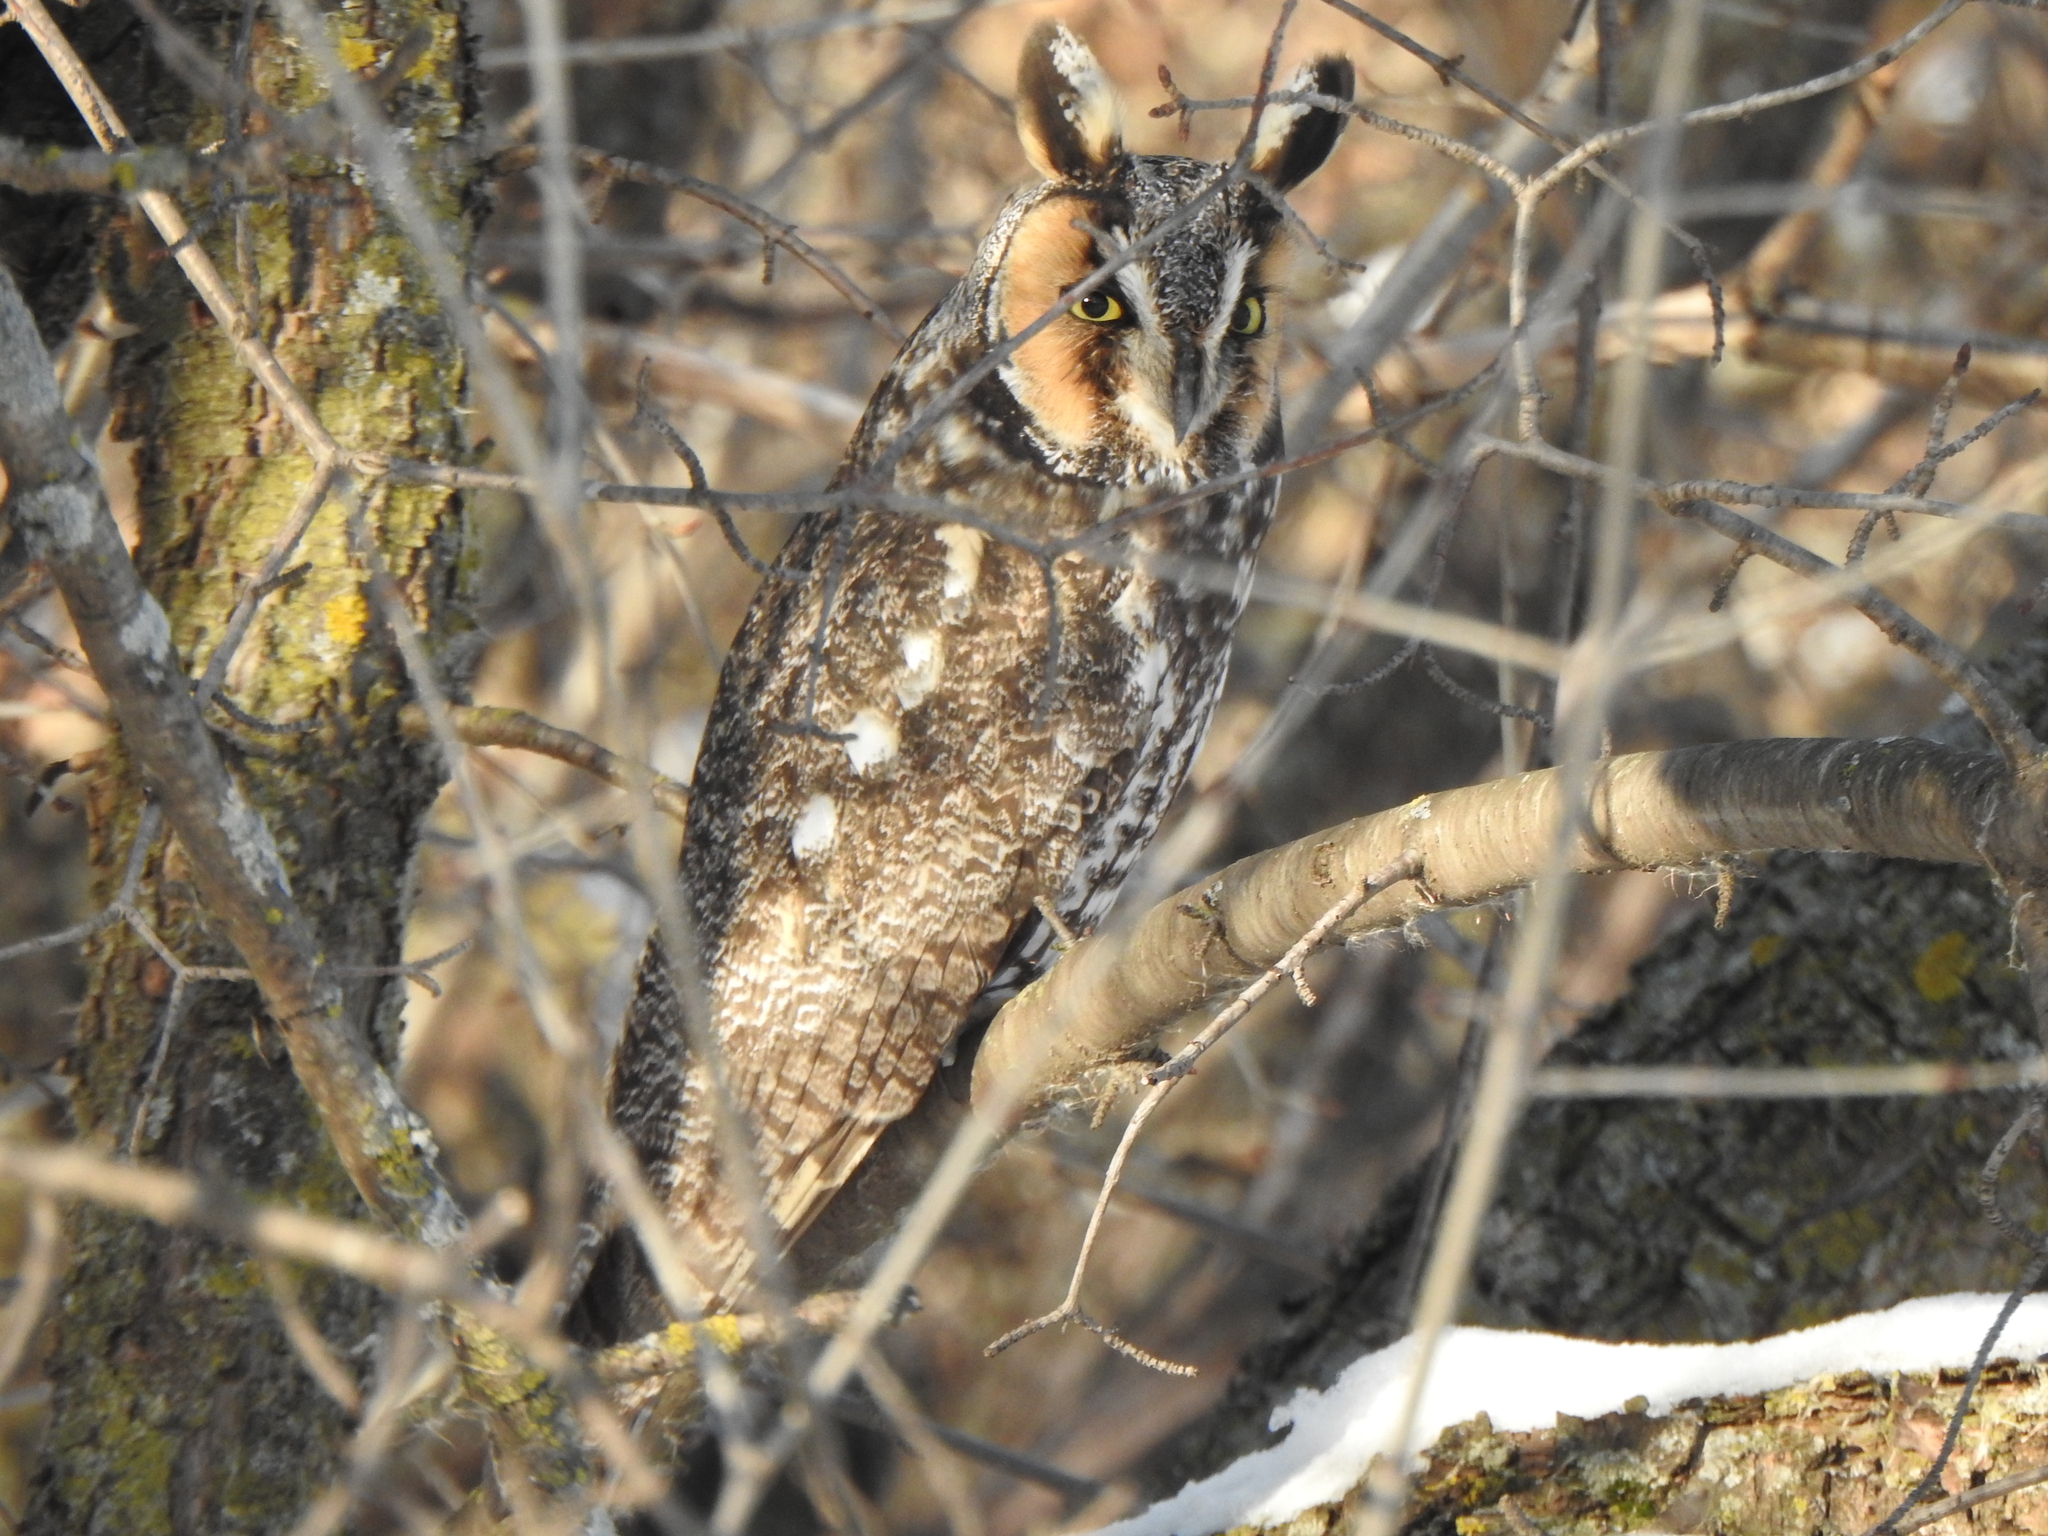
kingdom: Animalia
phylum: Chordata
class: Aves
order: Strigiformes
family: Strigidae
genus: Asio
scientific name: Asio otus
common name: Long-eared owl
